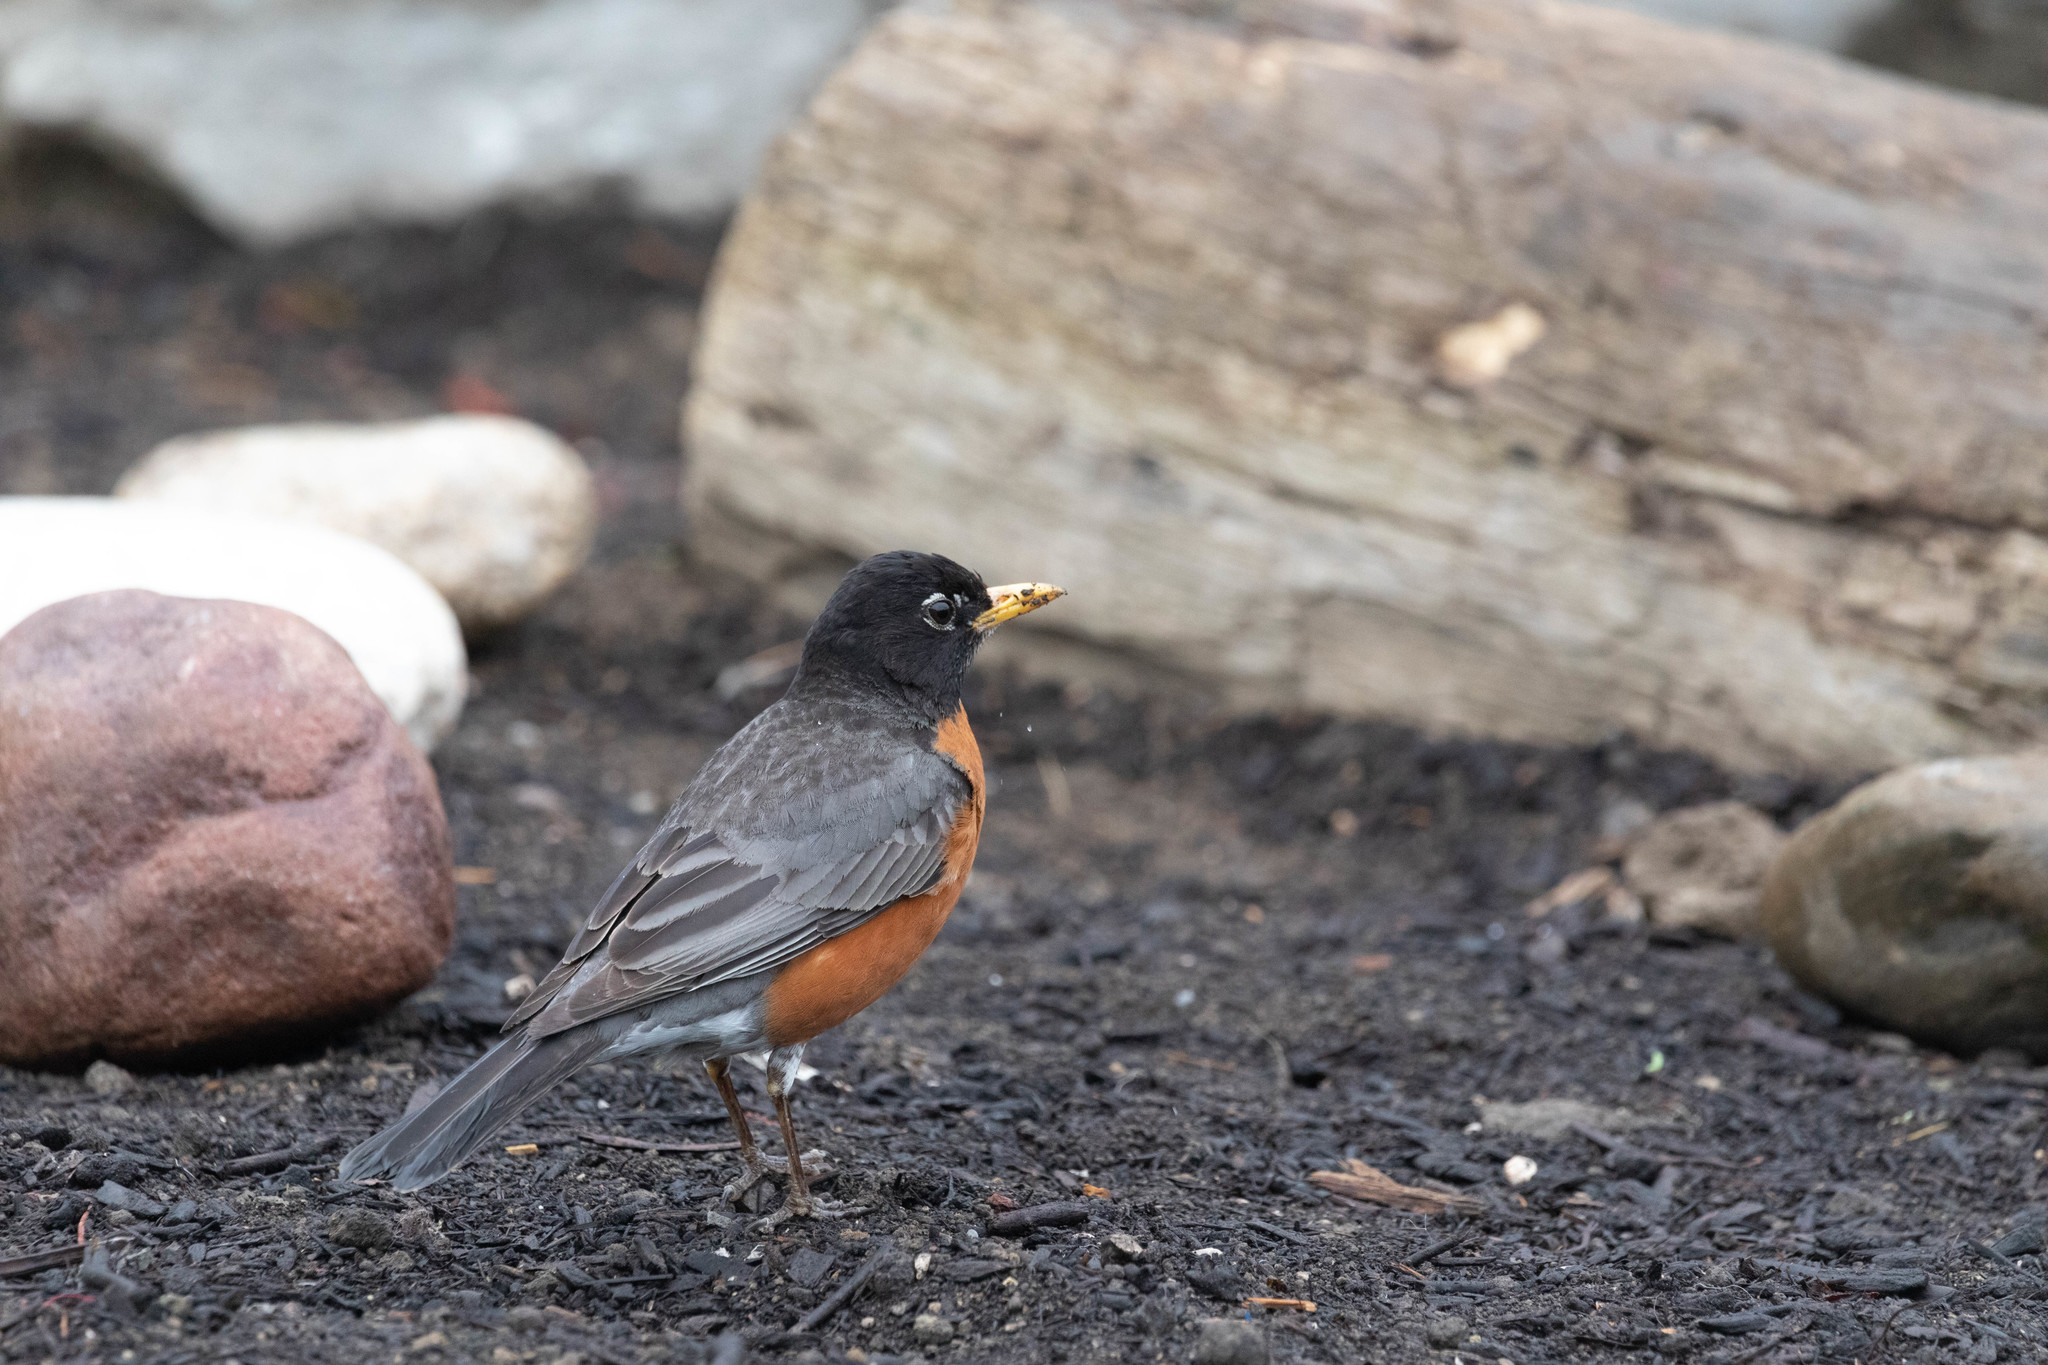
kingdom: Animalia
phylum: Chordata
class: Aves
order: Passeriformes
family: Turdidae
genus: Turdus
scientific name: Turdus migratorius
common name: American robin
